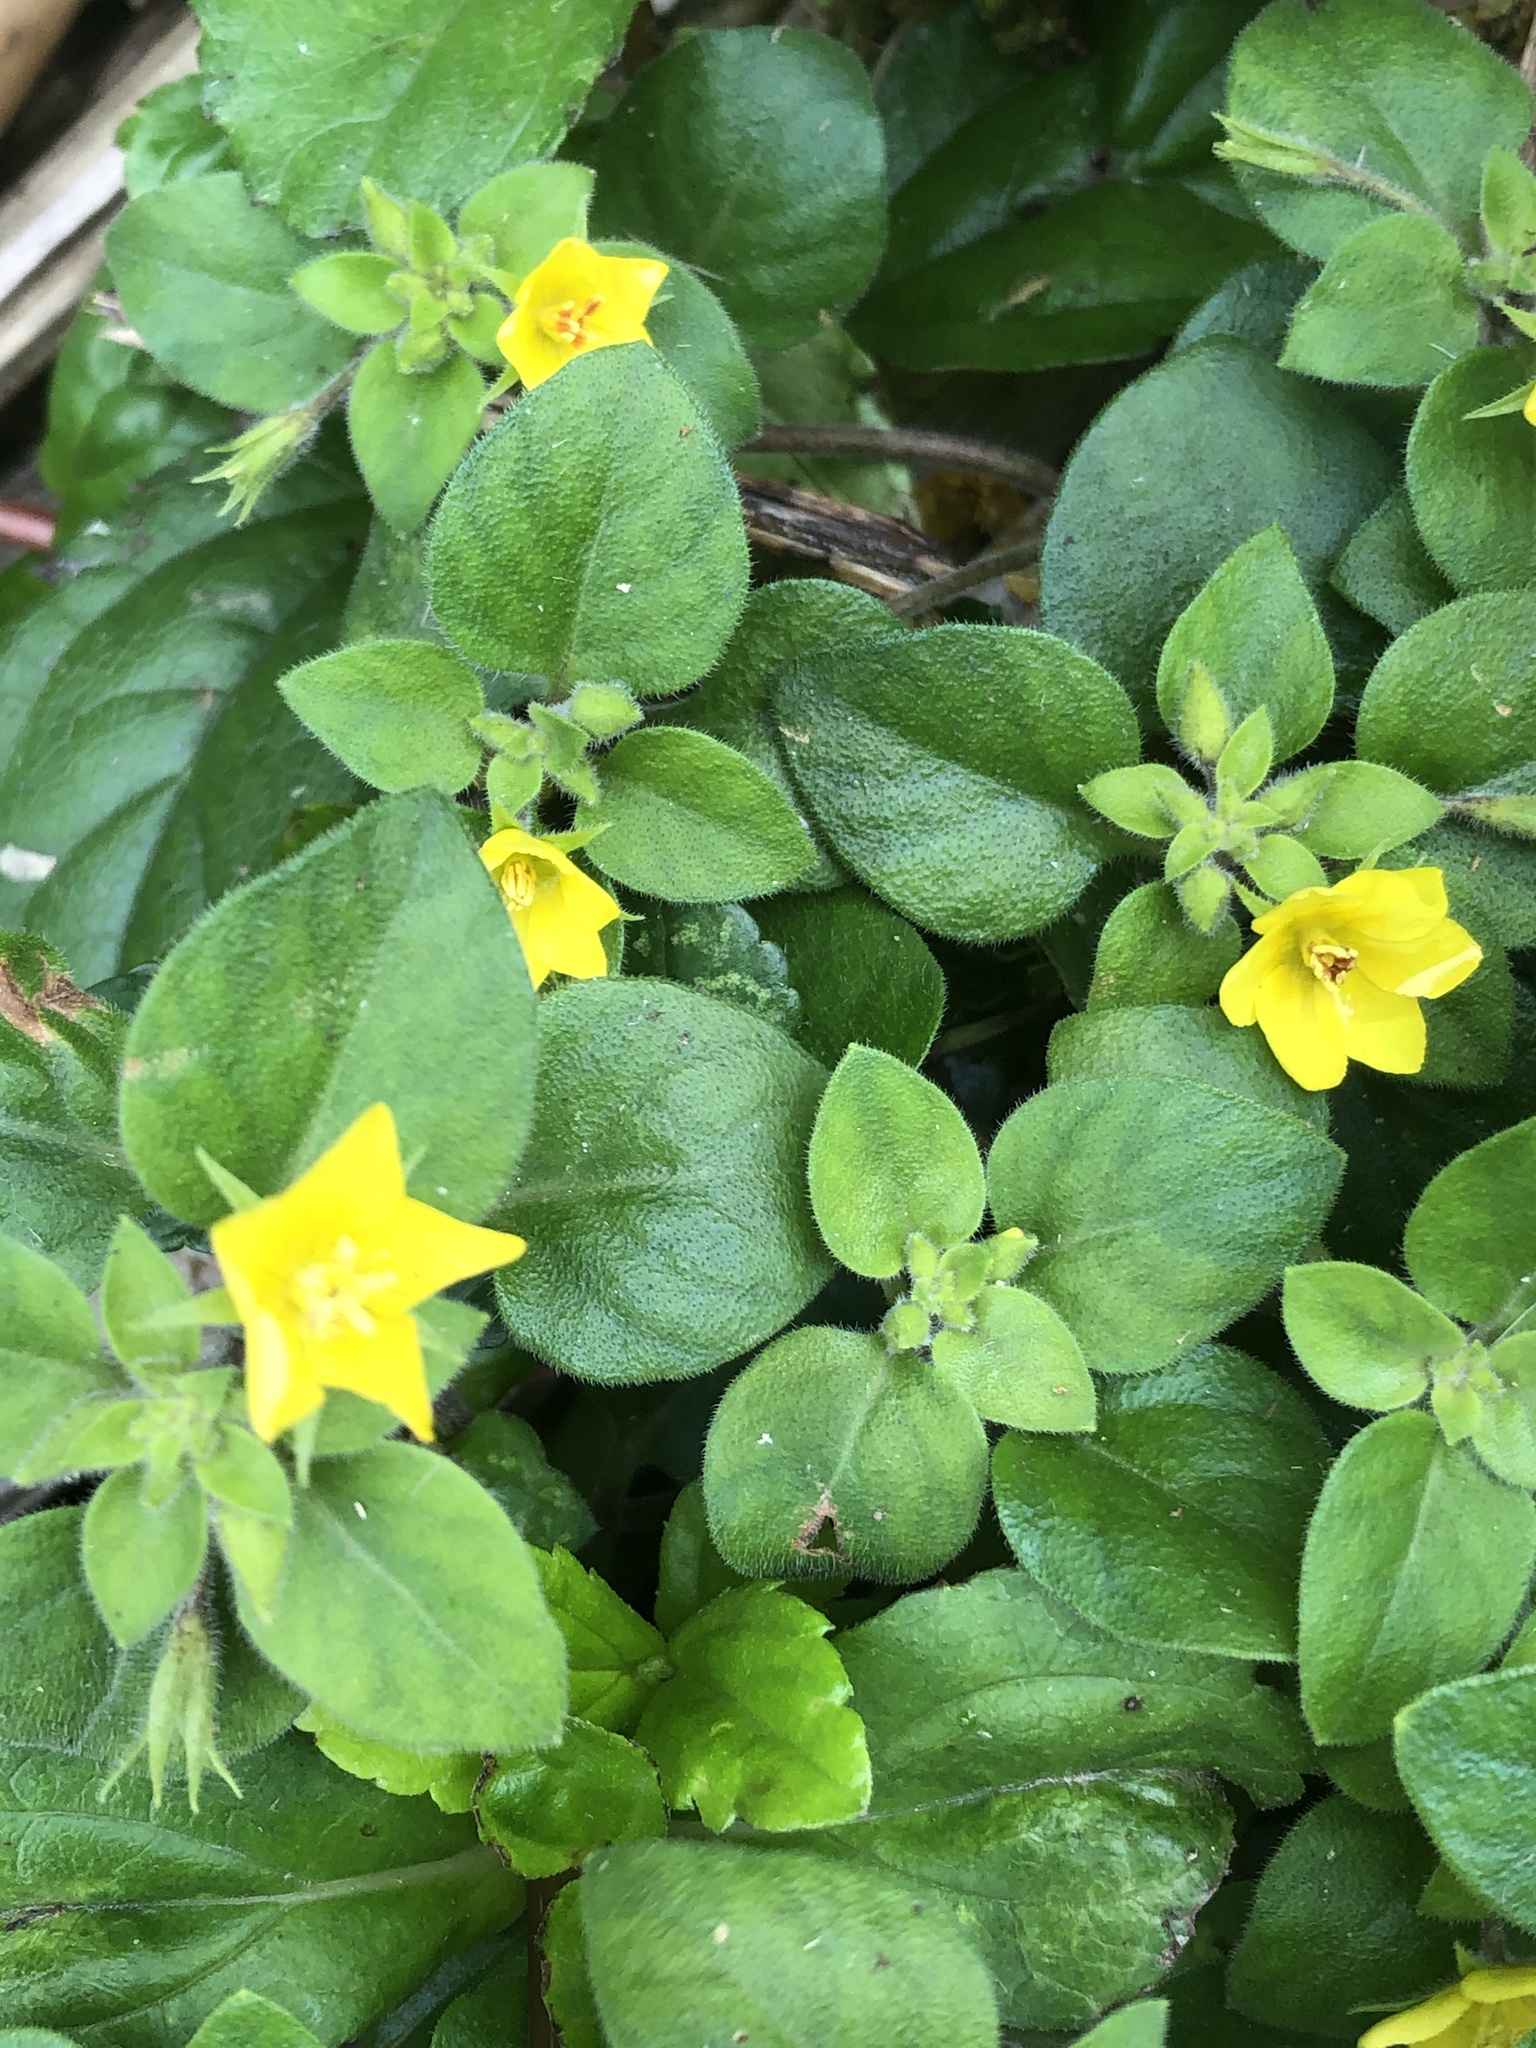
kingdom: Plantae
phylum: Tracheophyta
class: Magnoliopsida
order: Ericales
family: Primulaceae
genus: Lysimachia
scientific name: Lysimachia remota
